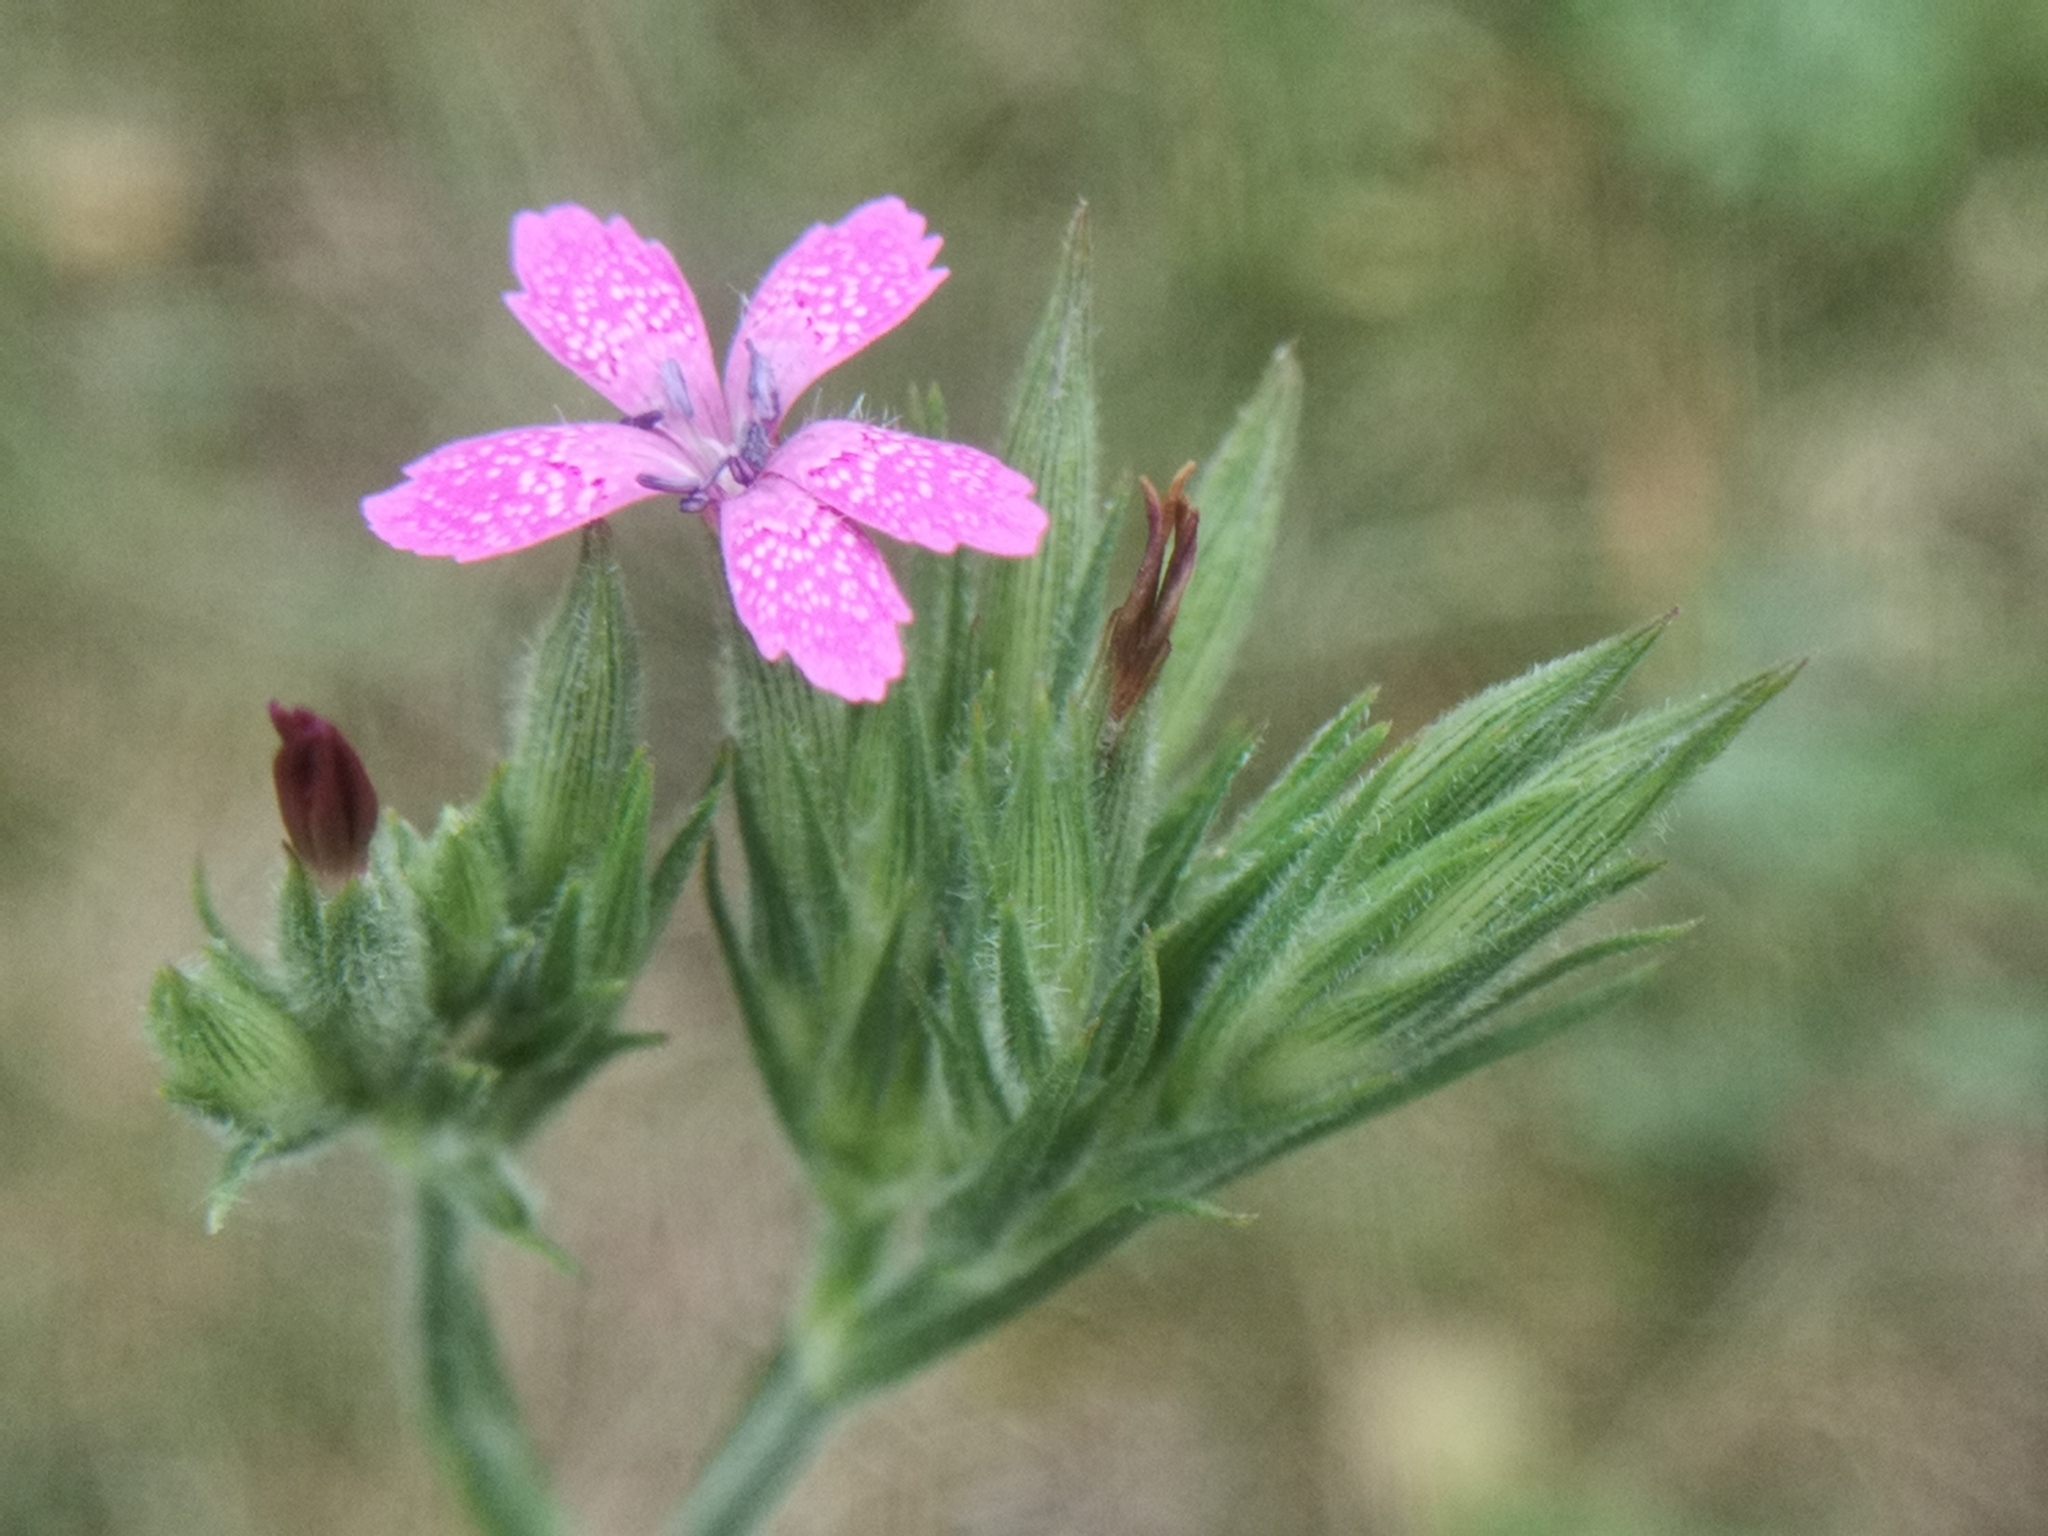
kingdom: Plantae
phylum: Tracheophyta
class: Magnoliopsida
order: Caryophyllales
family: Caryophyllaceae
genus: Dianthus
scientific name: Dianthus armeria
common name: Deptford pink
